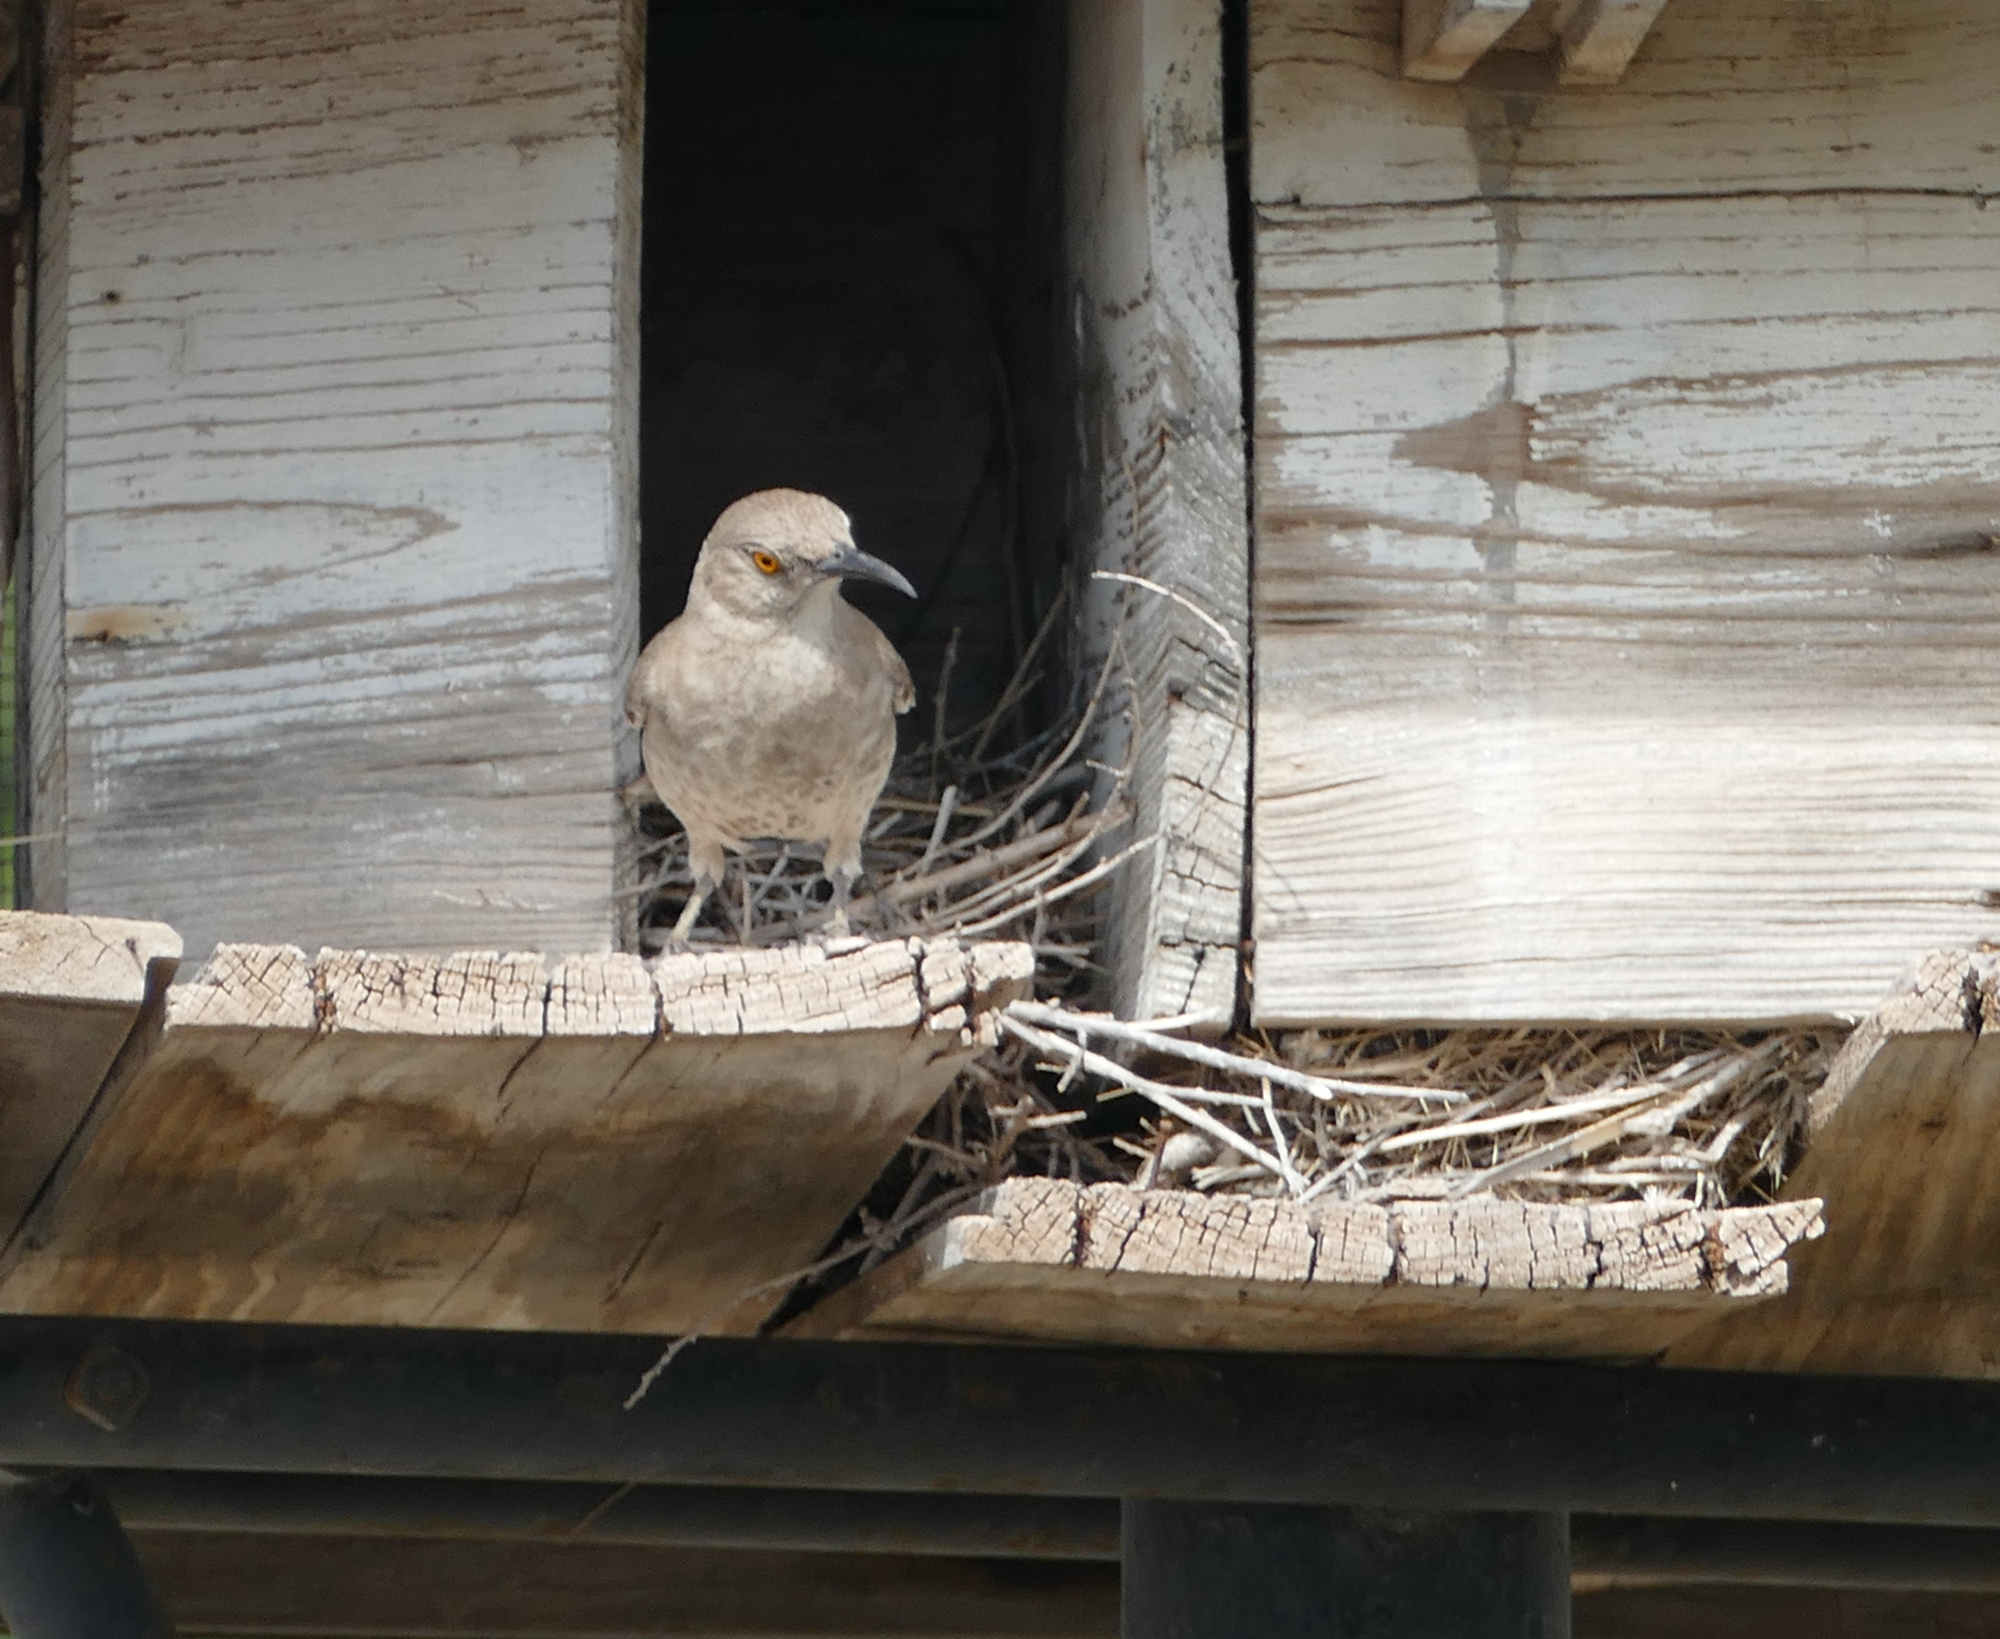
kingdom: Animalia
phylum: Chordata
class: Aves
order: Passeriformes
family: Mimidae
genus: Toxostoma
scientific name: Toxostoma curvirostre
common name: Curve-billed thrasher
